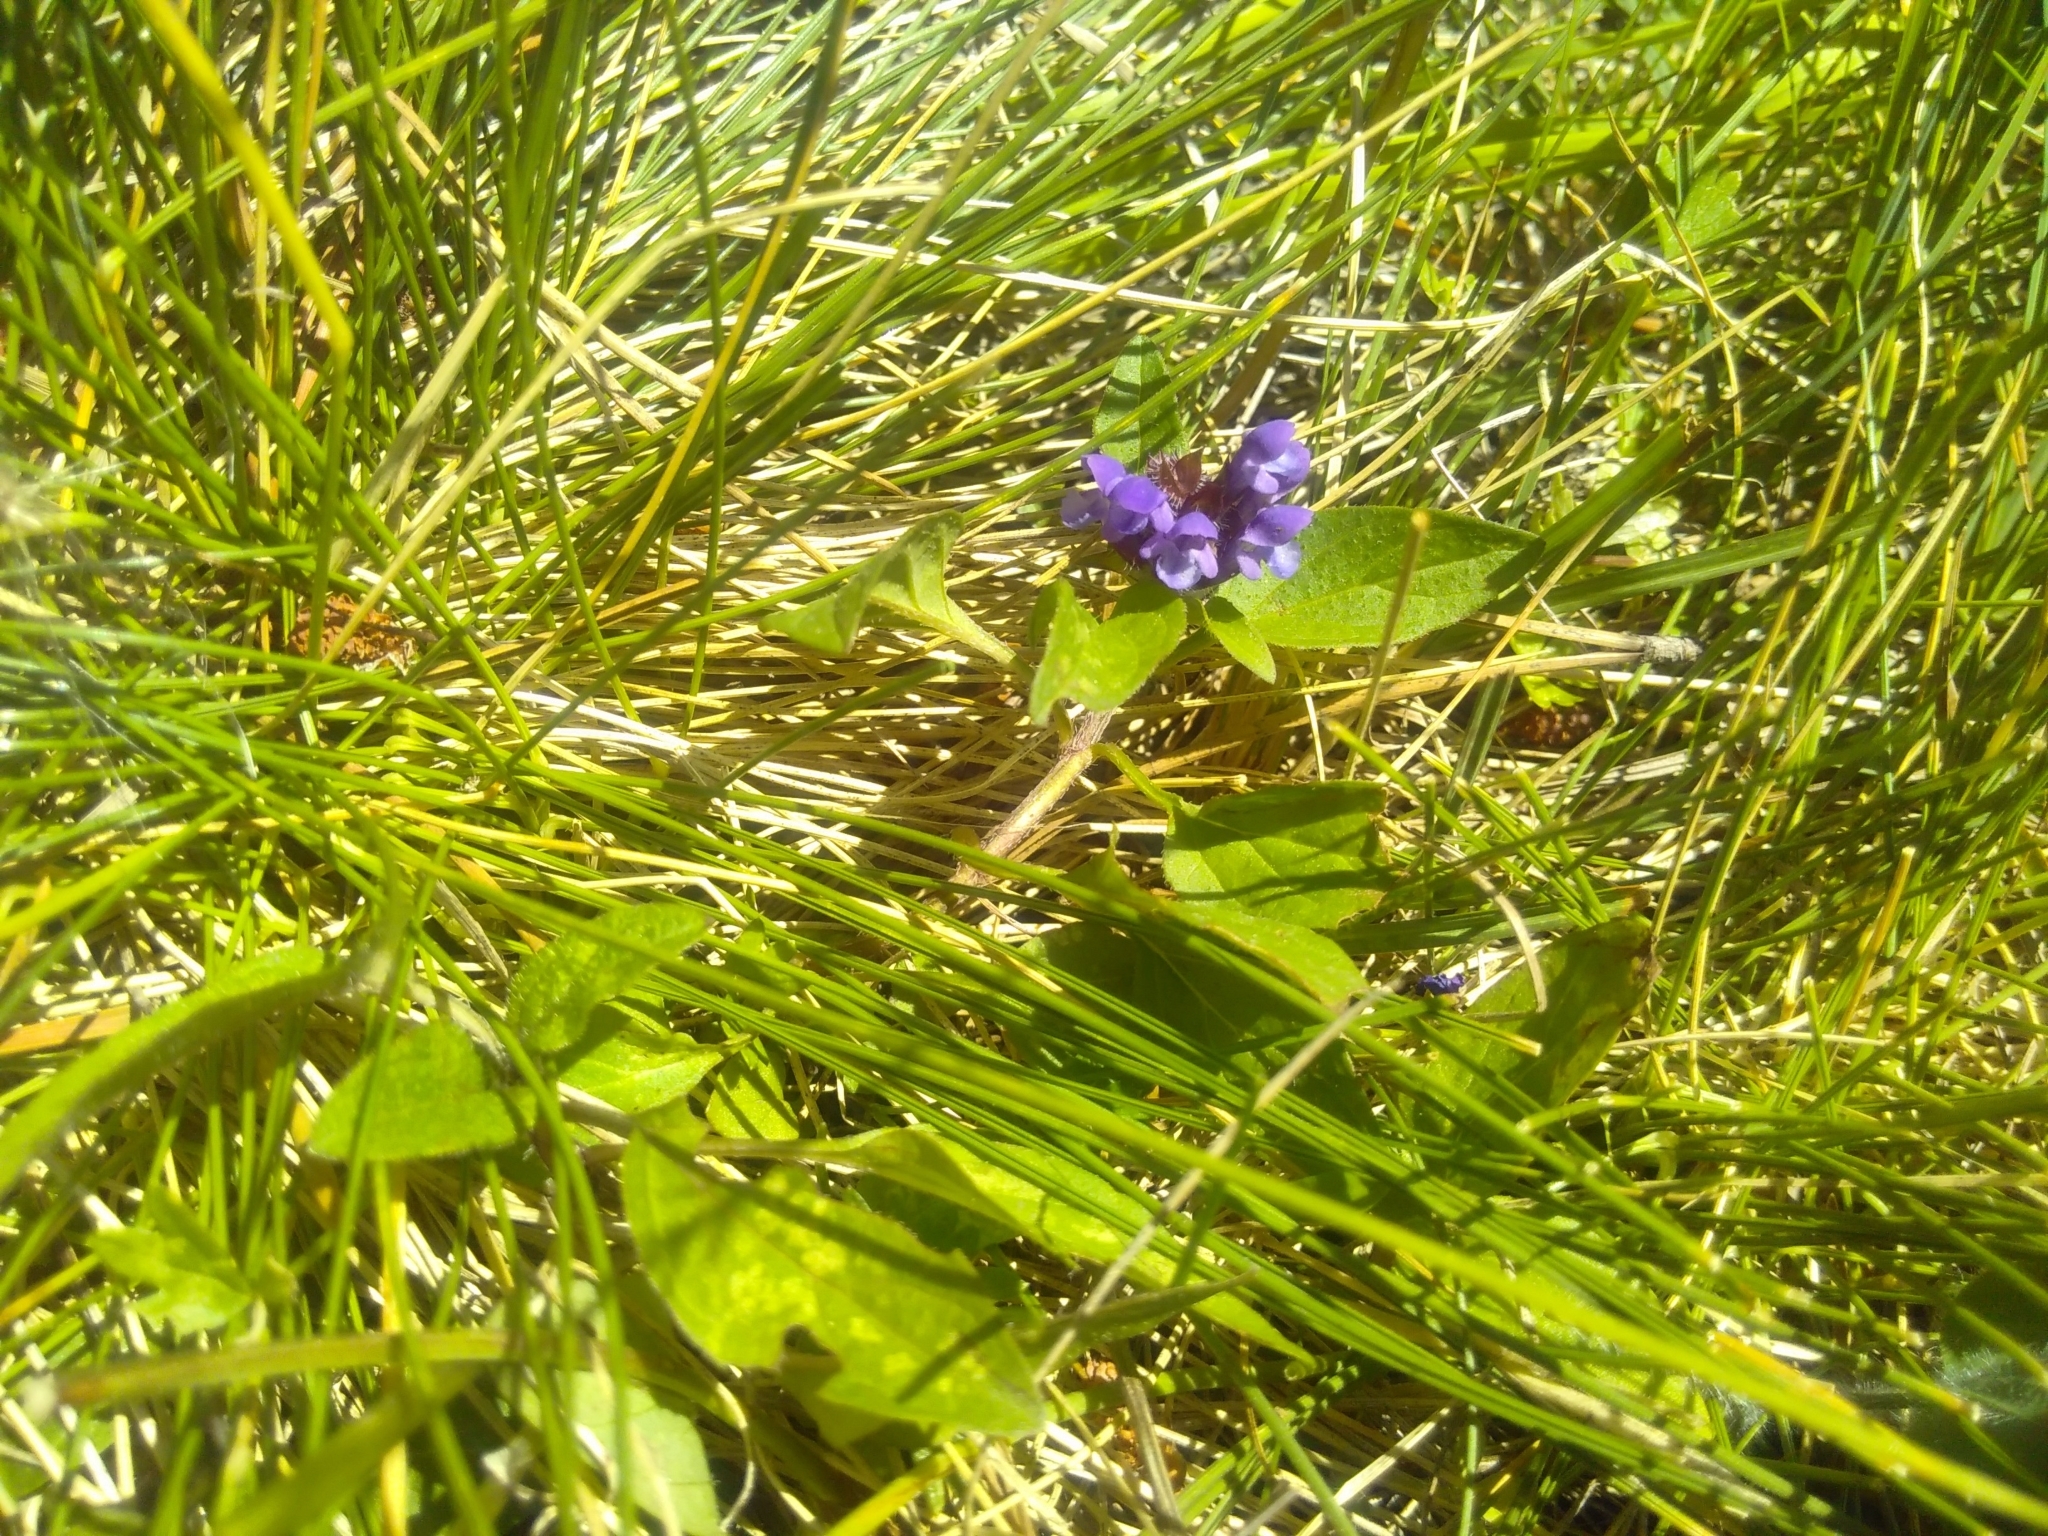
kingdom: Plantae
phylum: Tracheophyta
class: Magnoliopsida
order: Lamiales
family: Lamiaceae
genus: Prunella
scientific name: Prunella vulgaris
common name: Heal-all
